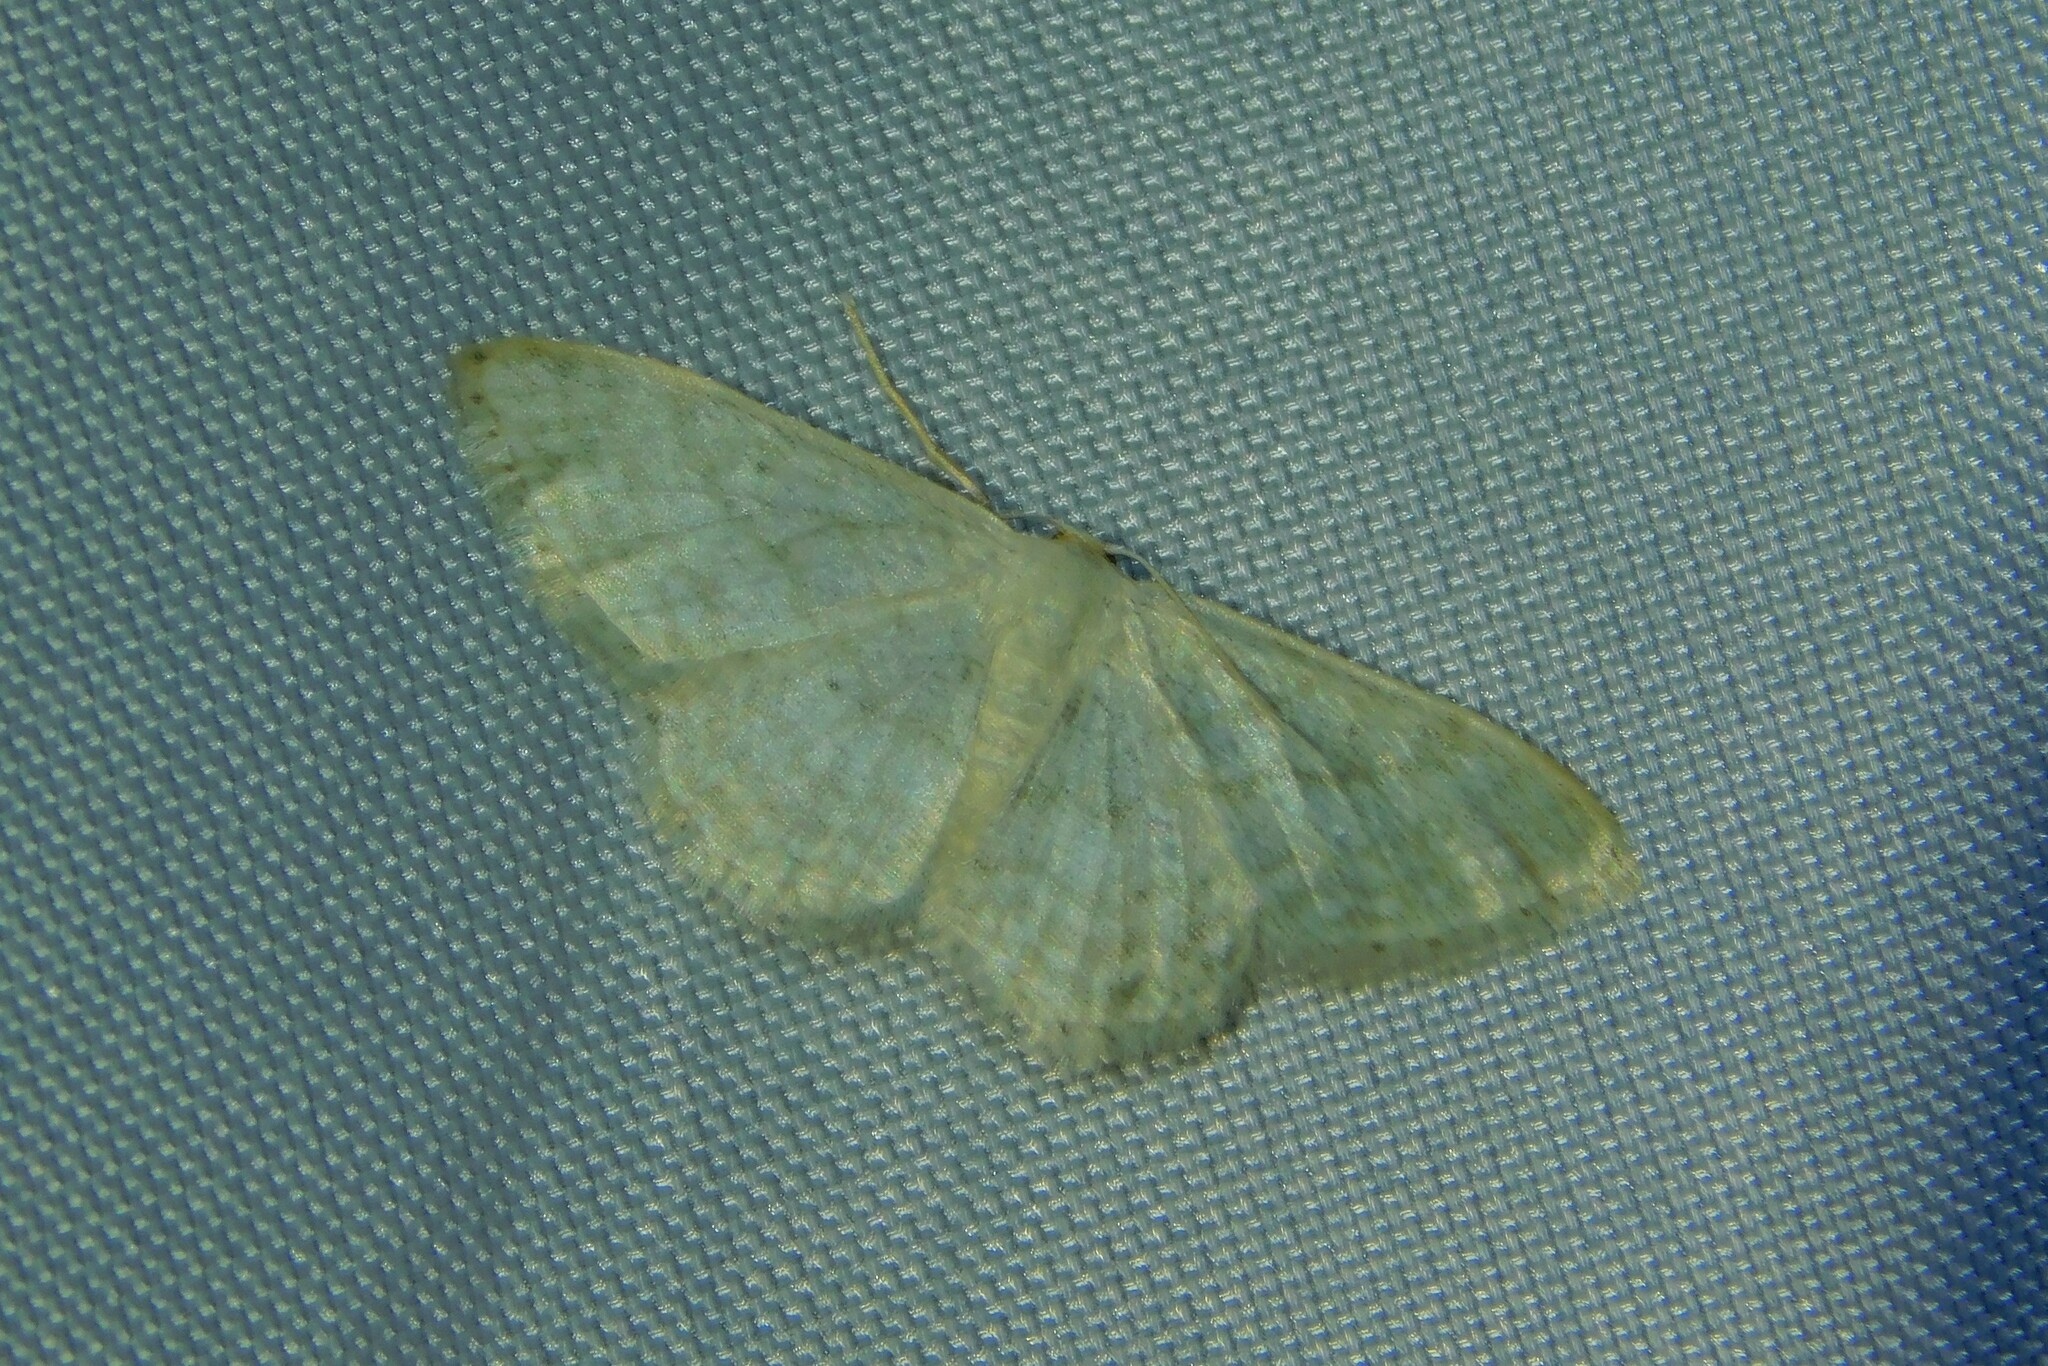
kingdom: Animalia
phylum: Arthropoda
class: Insecta
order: Lepidoptera
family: Geometridae
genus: Idaea
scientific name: Idaea subsericeata
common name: Satin wave
